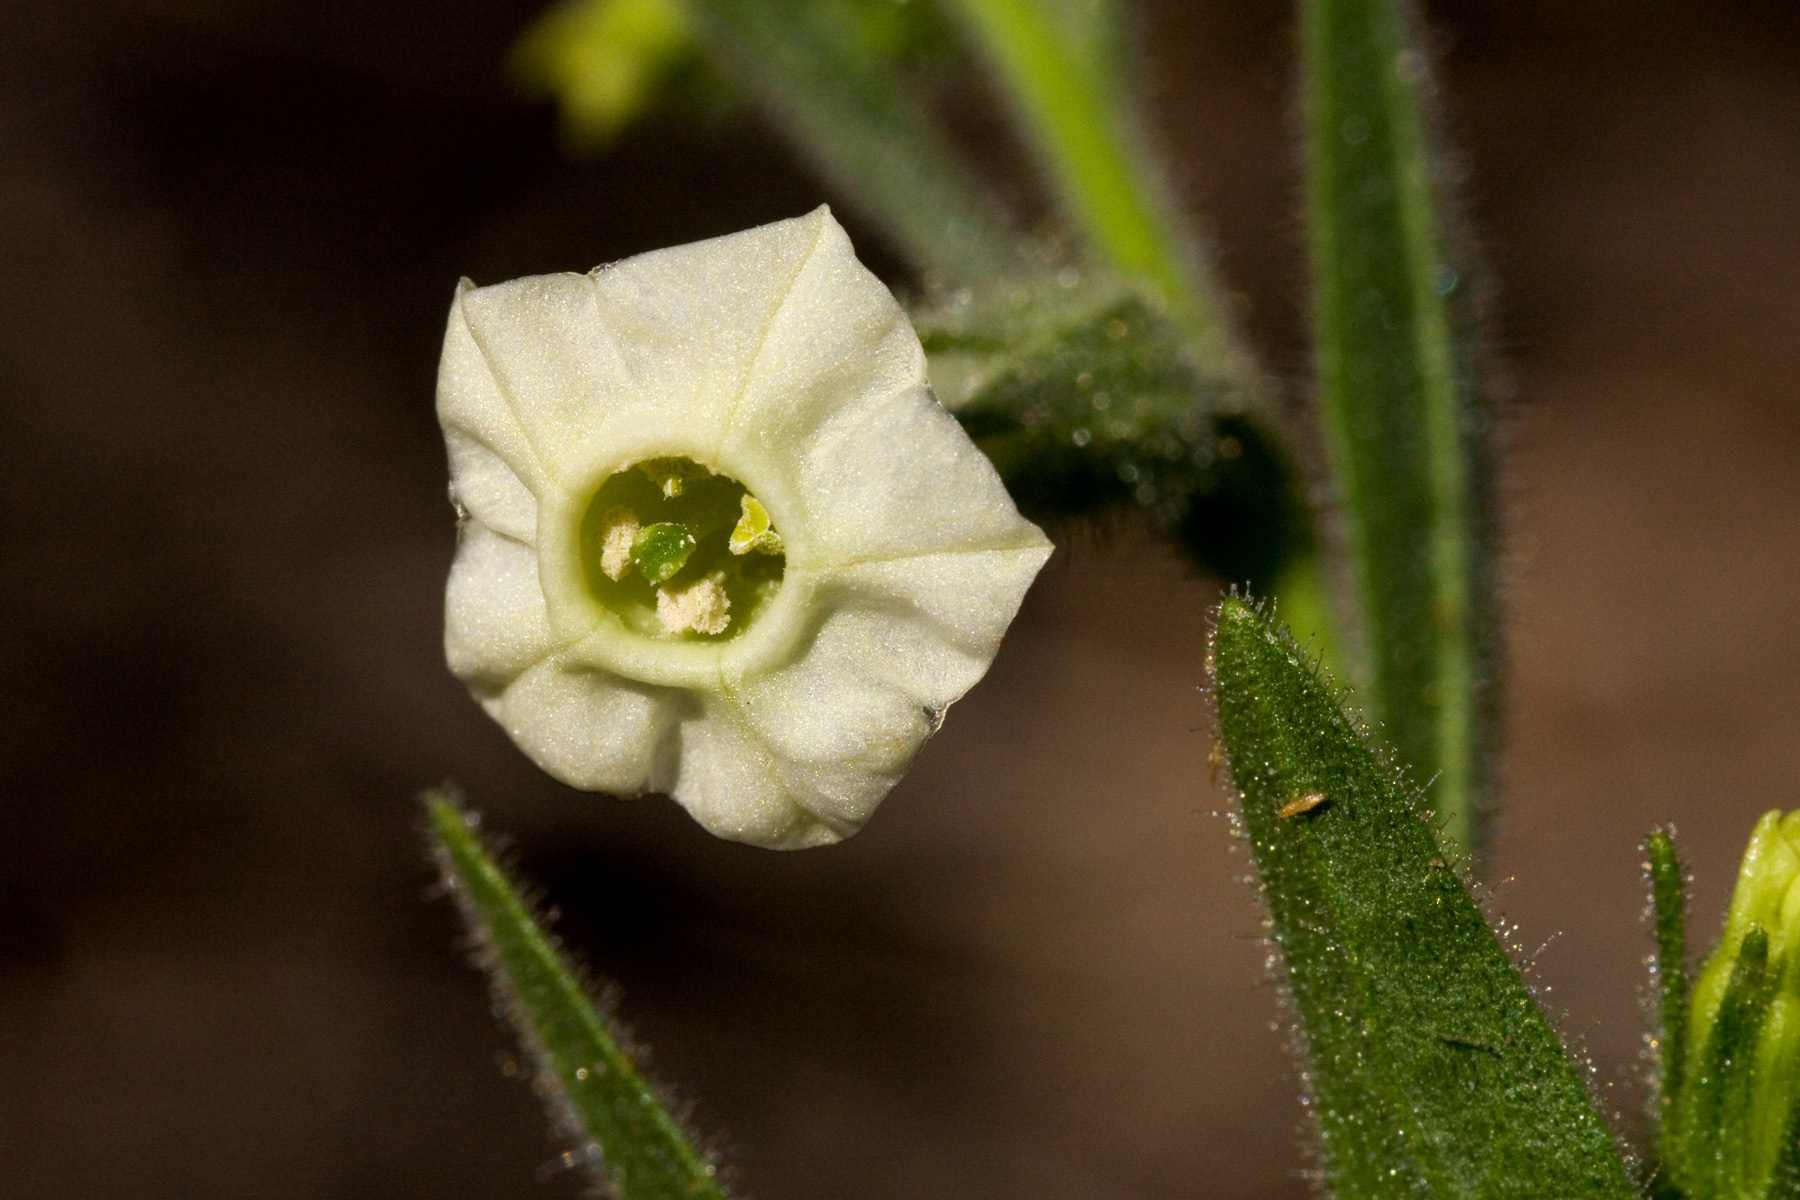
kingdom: Plantae
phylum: Tracheophyta
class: Magnoliopsida
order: Solanales
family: Solanaceae
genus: Nicotiana
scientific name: Nicotiana obtusifolia
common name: Desert tobacco
